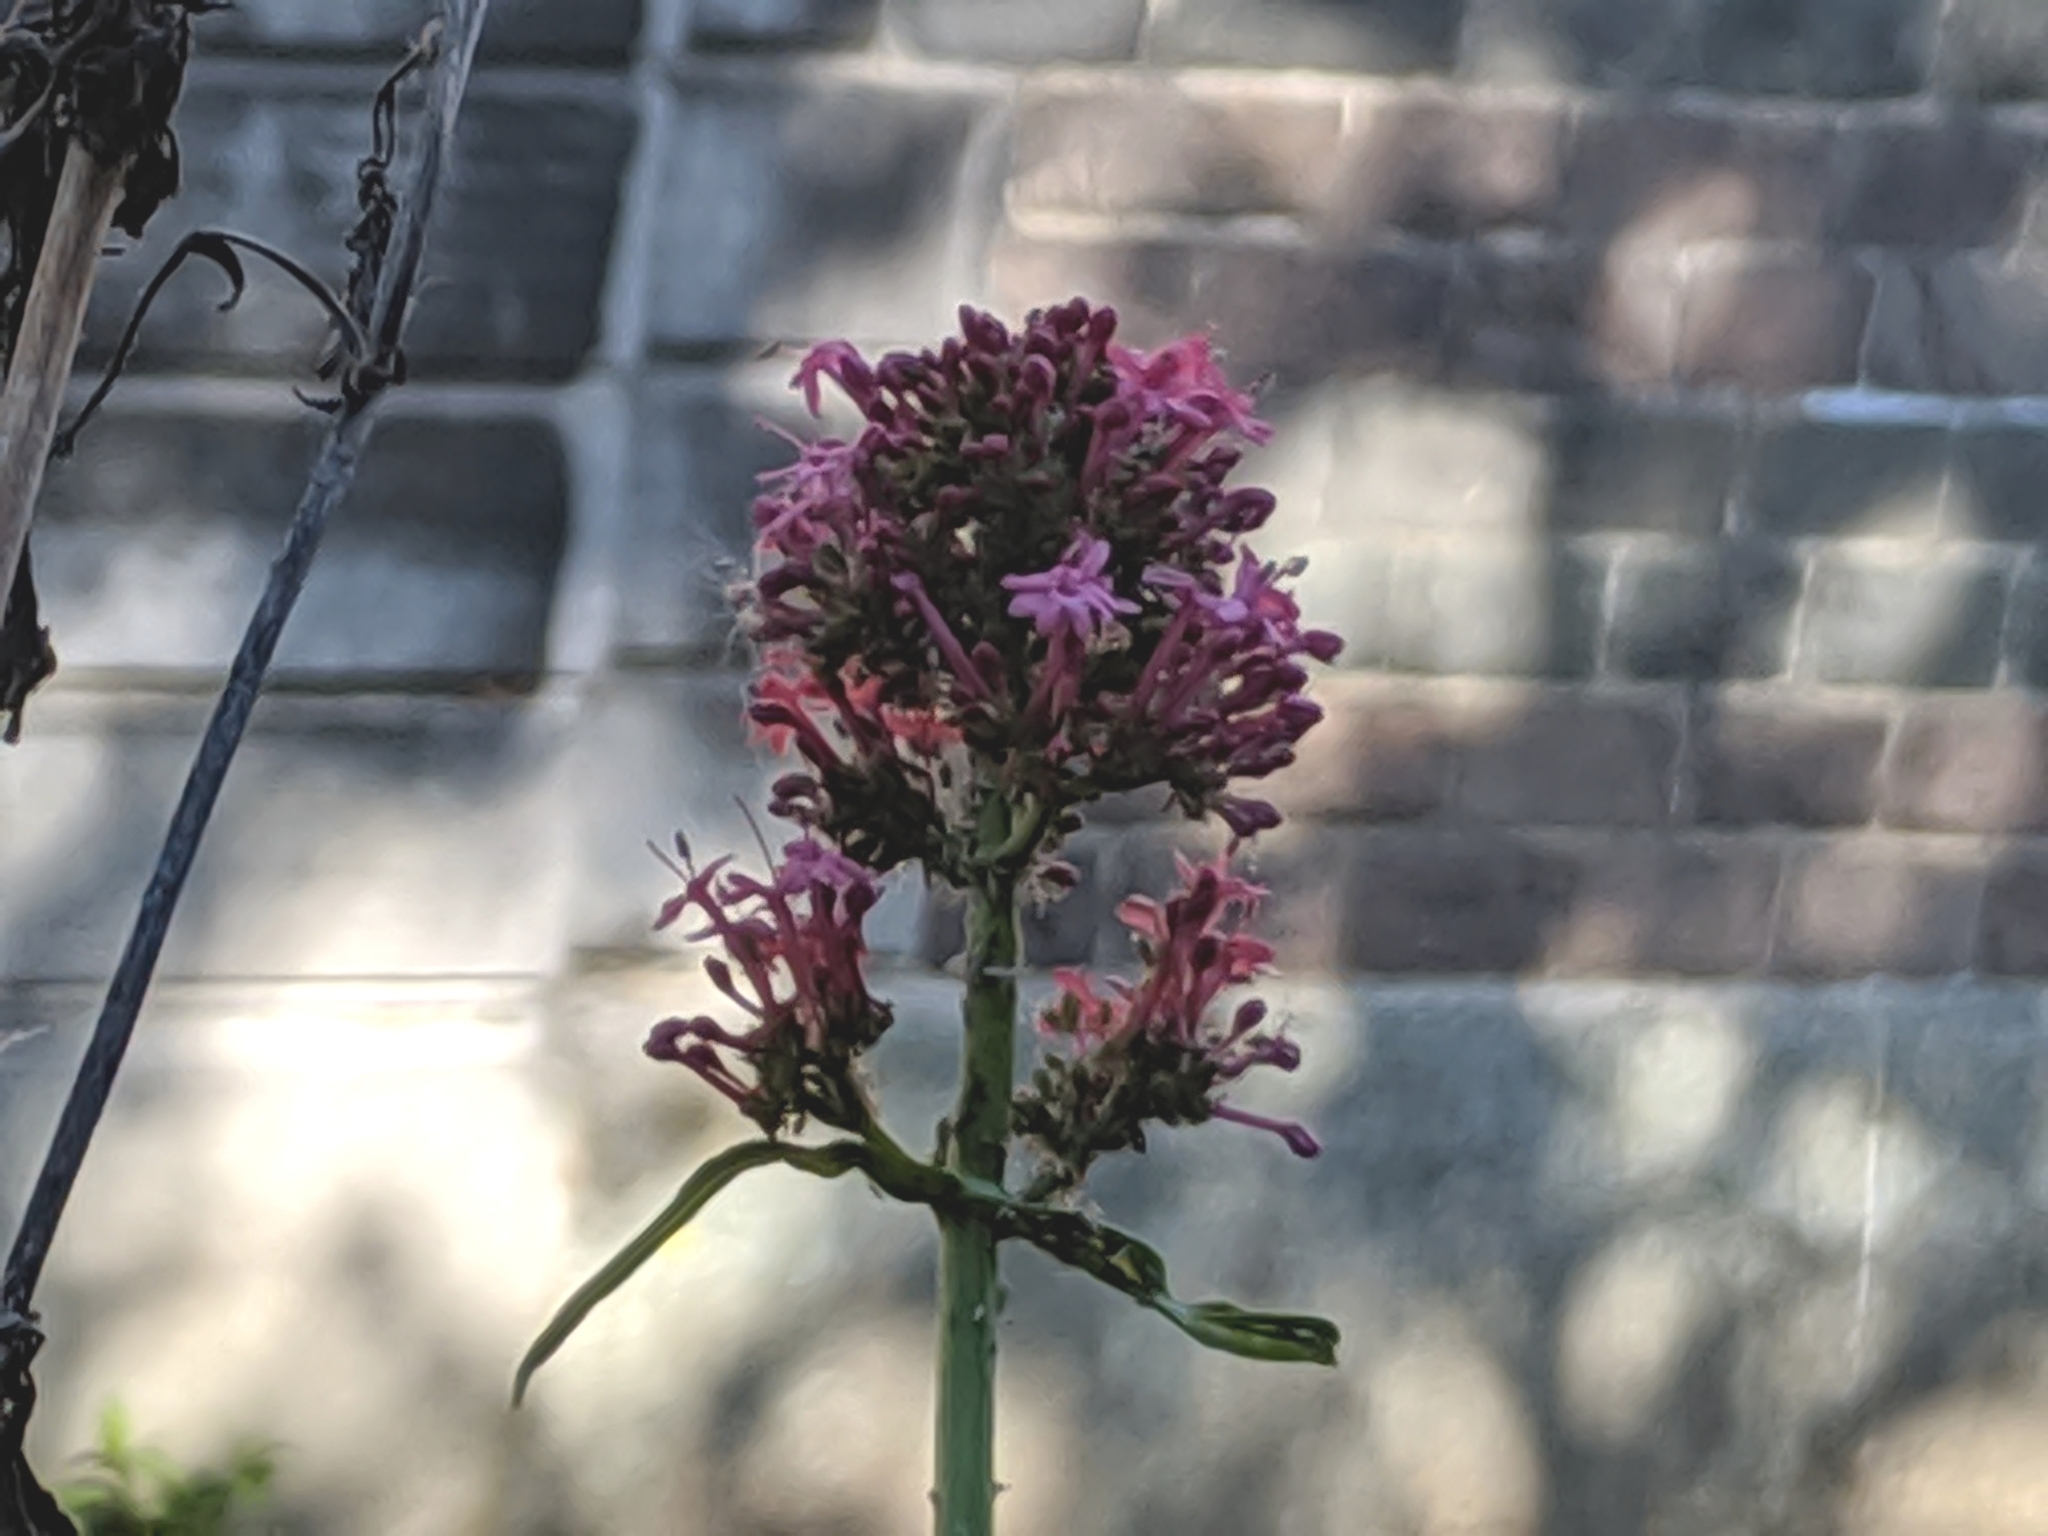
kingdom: Plantae
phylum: Tracheophyta
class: Magnoliopsida
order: Dipsacales
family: Caprifoliaceae
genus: Centranthus
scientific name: Centranthus ruber
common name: Red valerian
